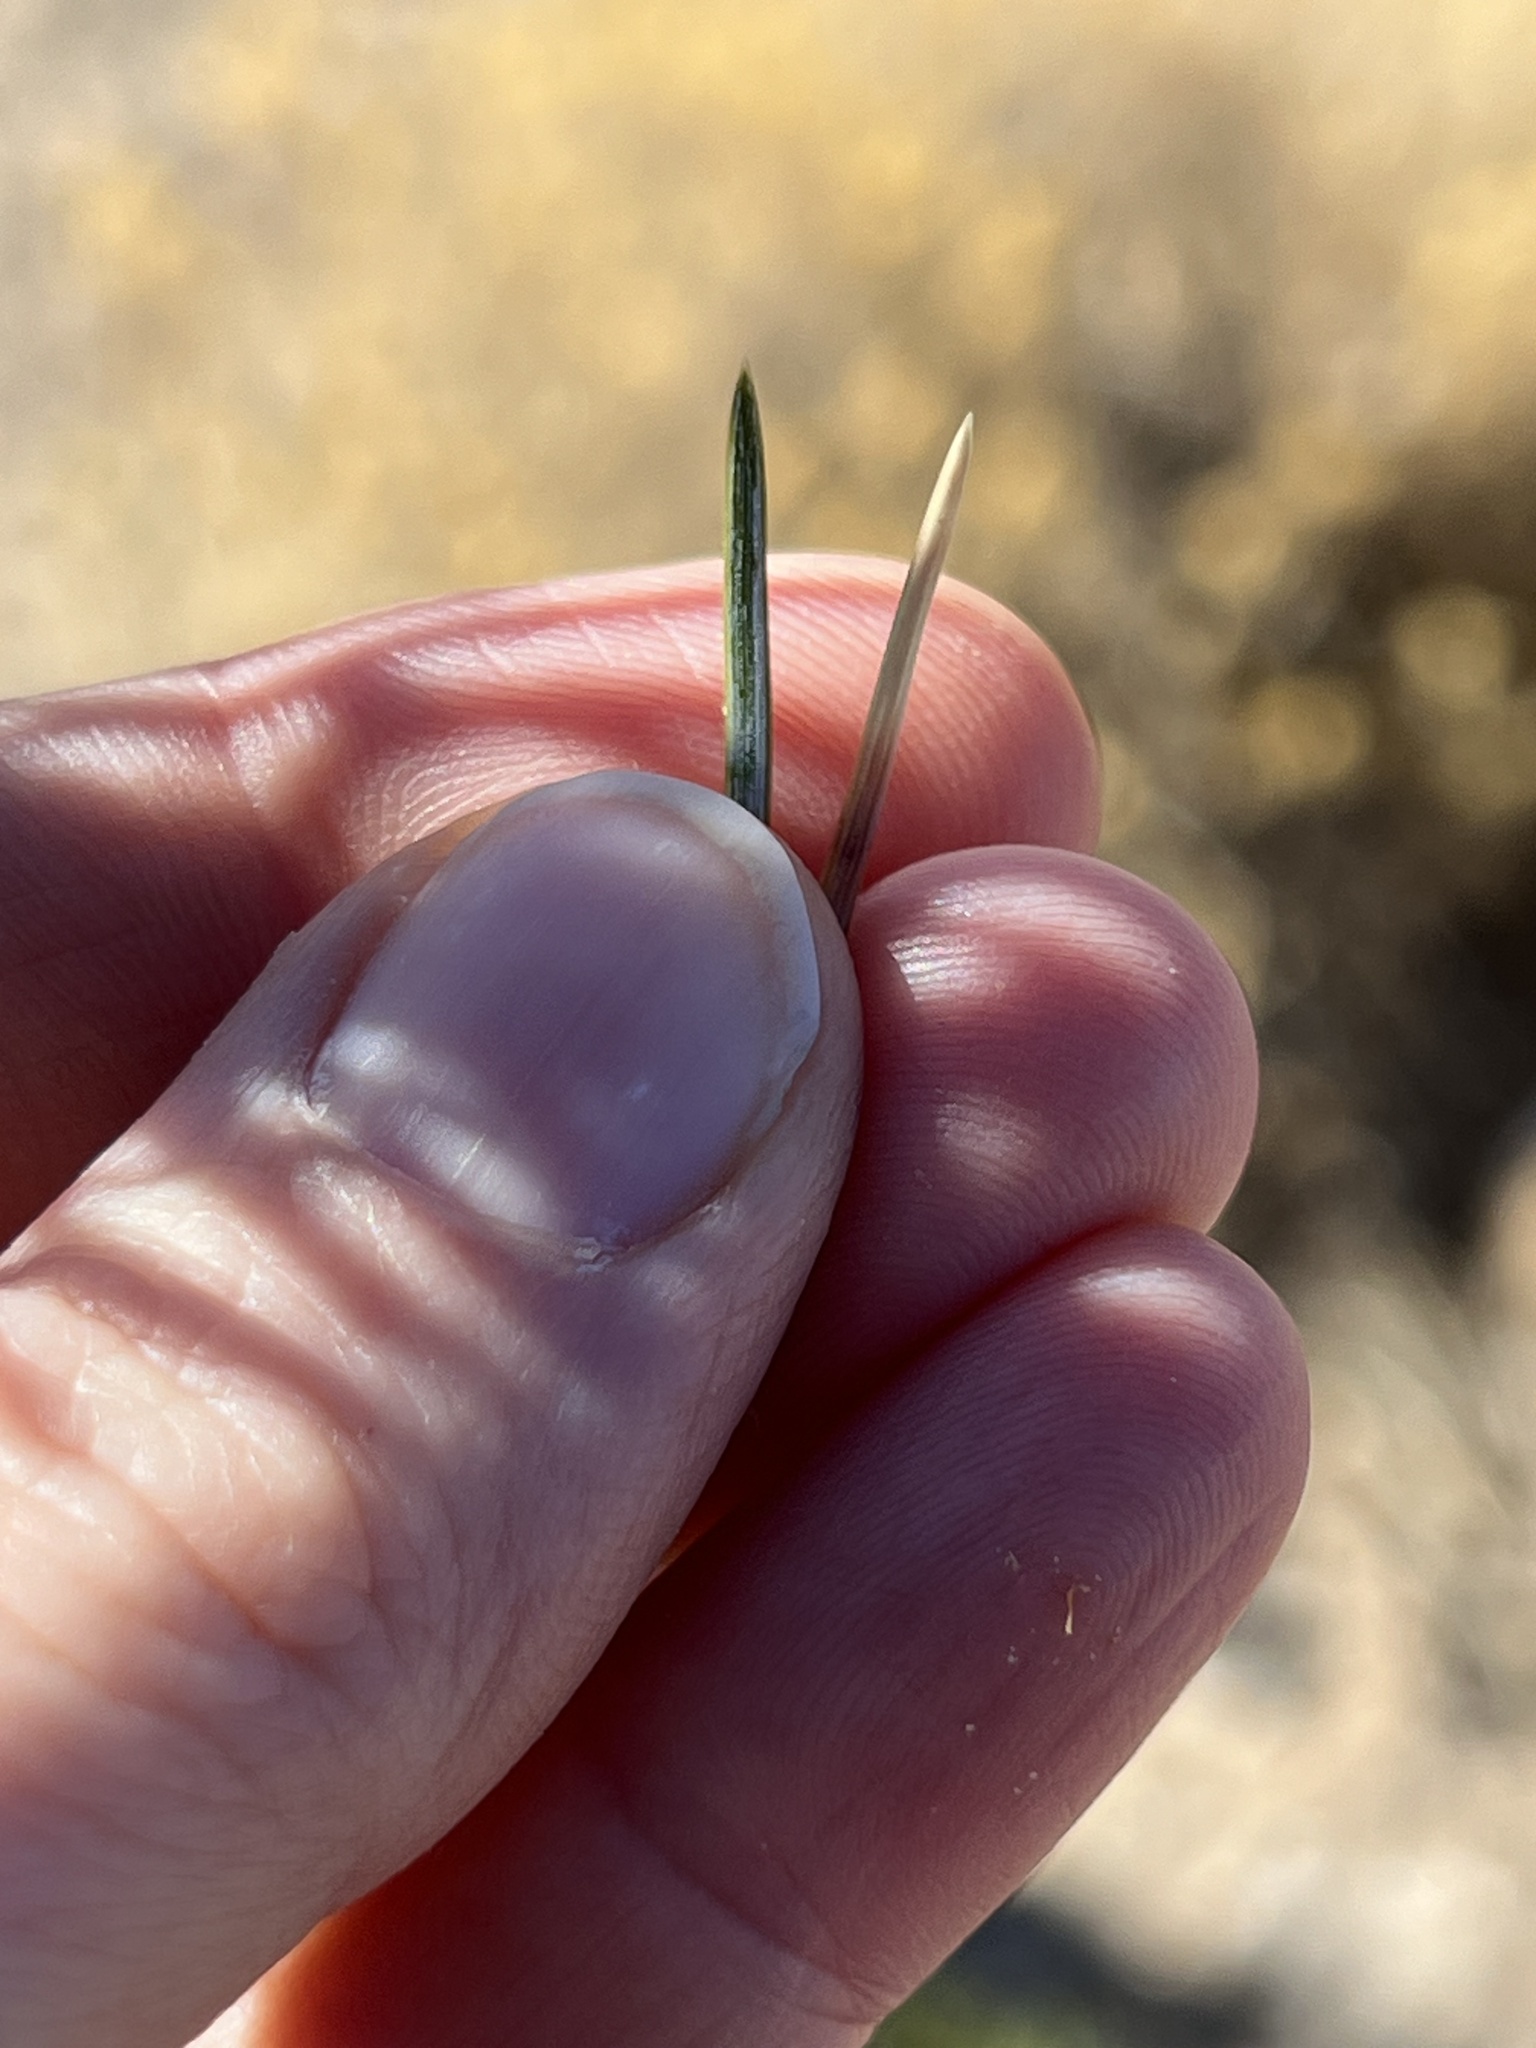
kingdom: Plantae
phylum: Tracheophyta
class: Pinopsida
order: Pinales
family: Pinaceae
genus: Pinus
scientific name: Pinus edulis
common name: Colorado pinyon
